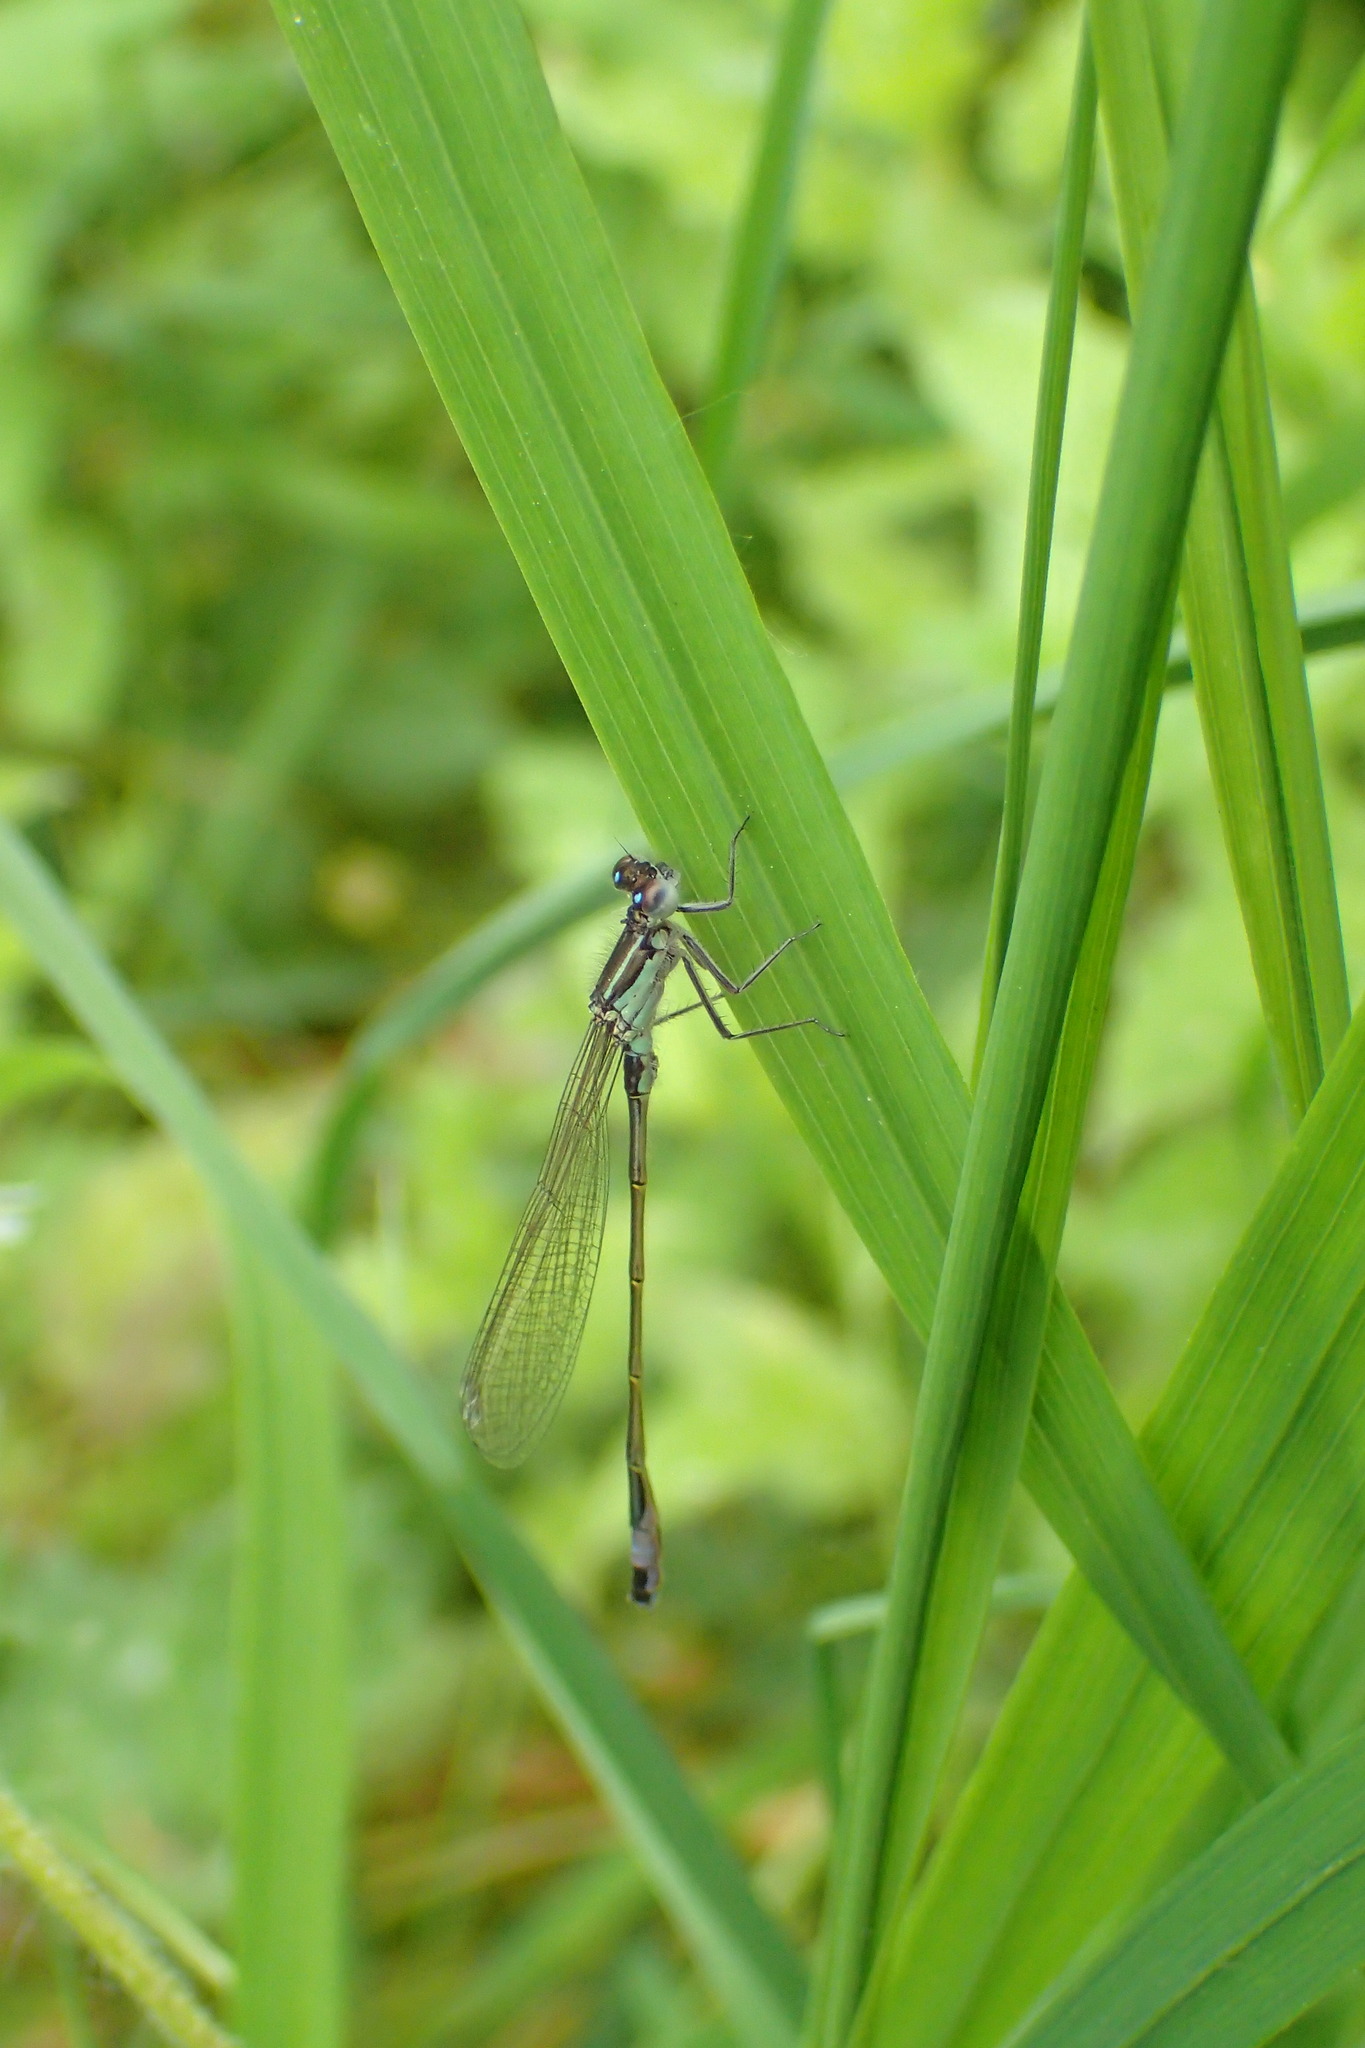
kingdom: Animalia
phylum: Arthropoda
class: Insecta
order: Odonata
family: Coenagrionidae
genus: Ischnura
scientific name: Ischnura elegans
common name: Blue-tailed damselfly
